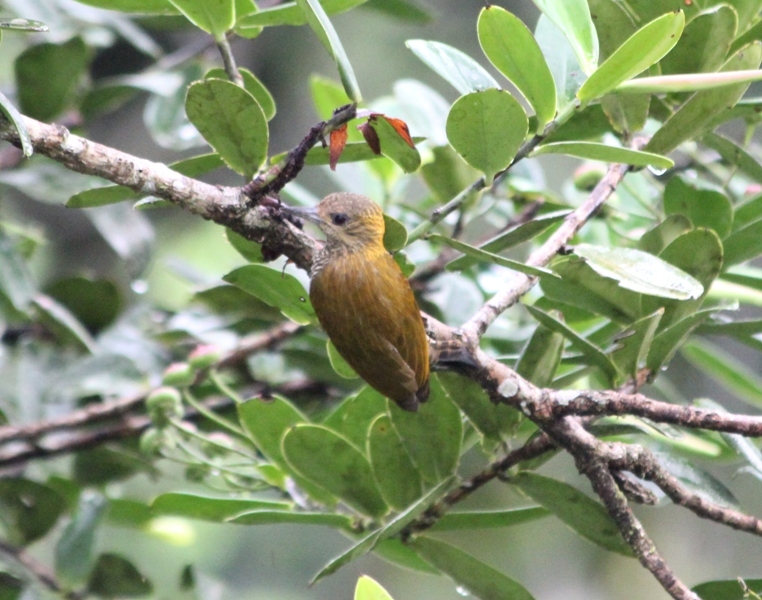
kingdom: Animalia
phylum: Chordata
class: Aves
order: Piciformes
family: Picidae
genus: Veniliornis
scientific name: Veniliornis affinis
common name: Red-stained woodpecker
